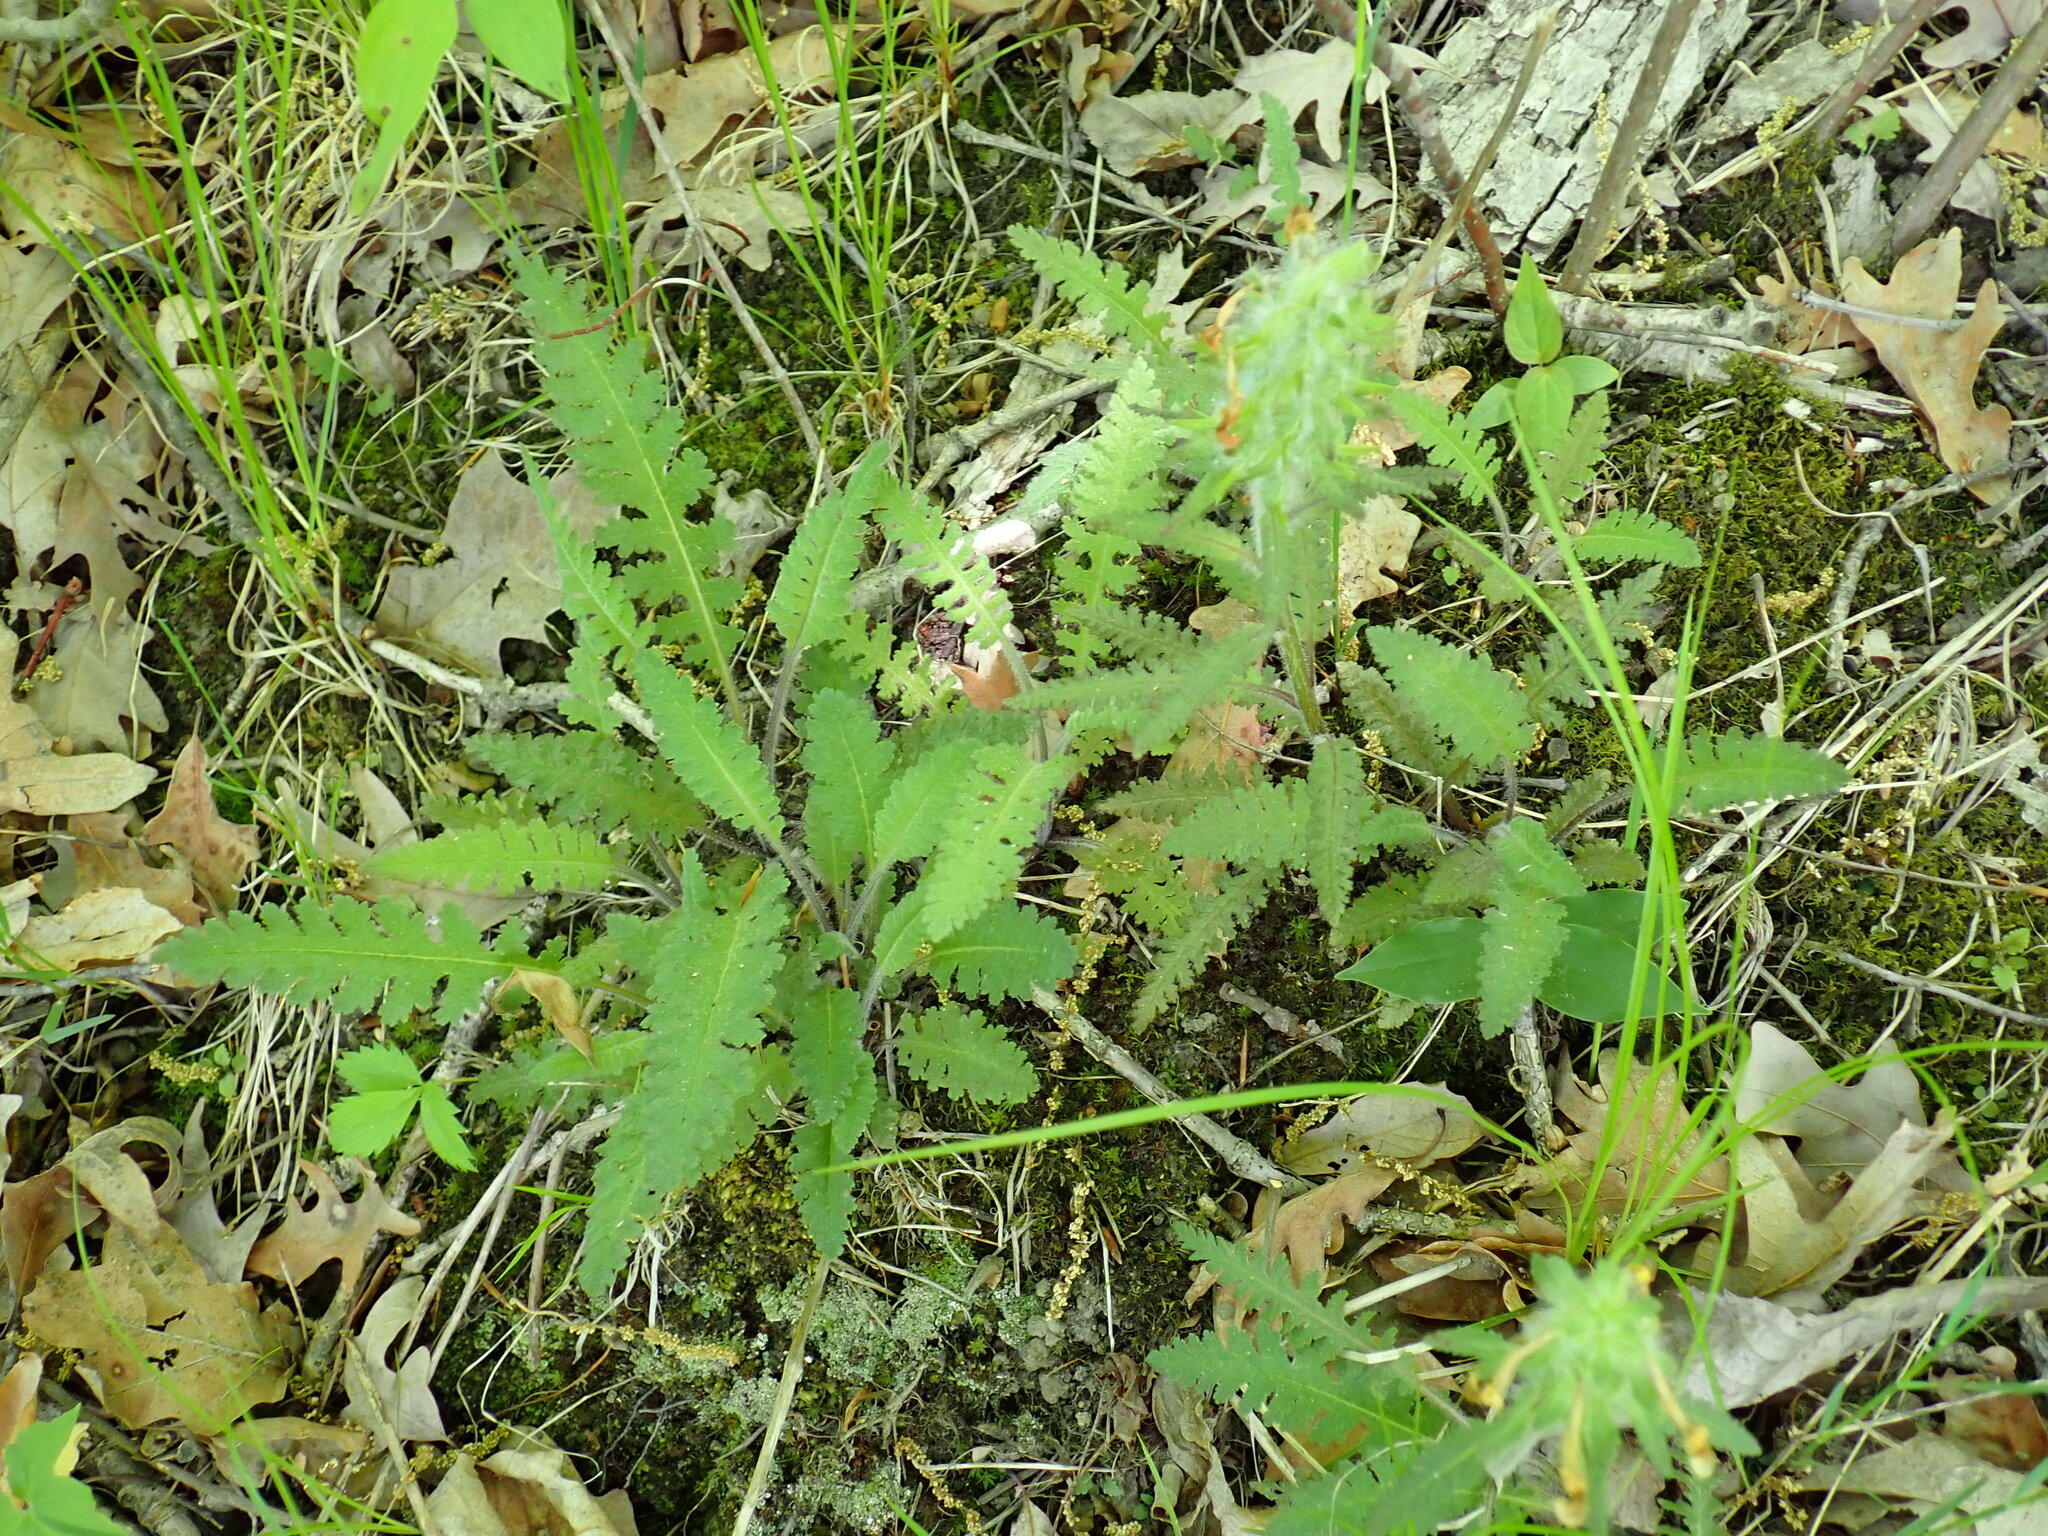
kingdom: Plantae
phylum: Tracheophyta
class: Magnoliopsida
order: Lamiales
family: Orobanchaceae
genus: Pedicularis
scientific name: Pedicularis canadensis
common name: Early lousewort
